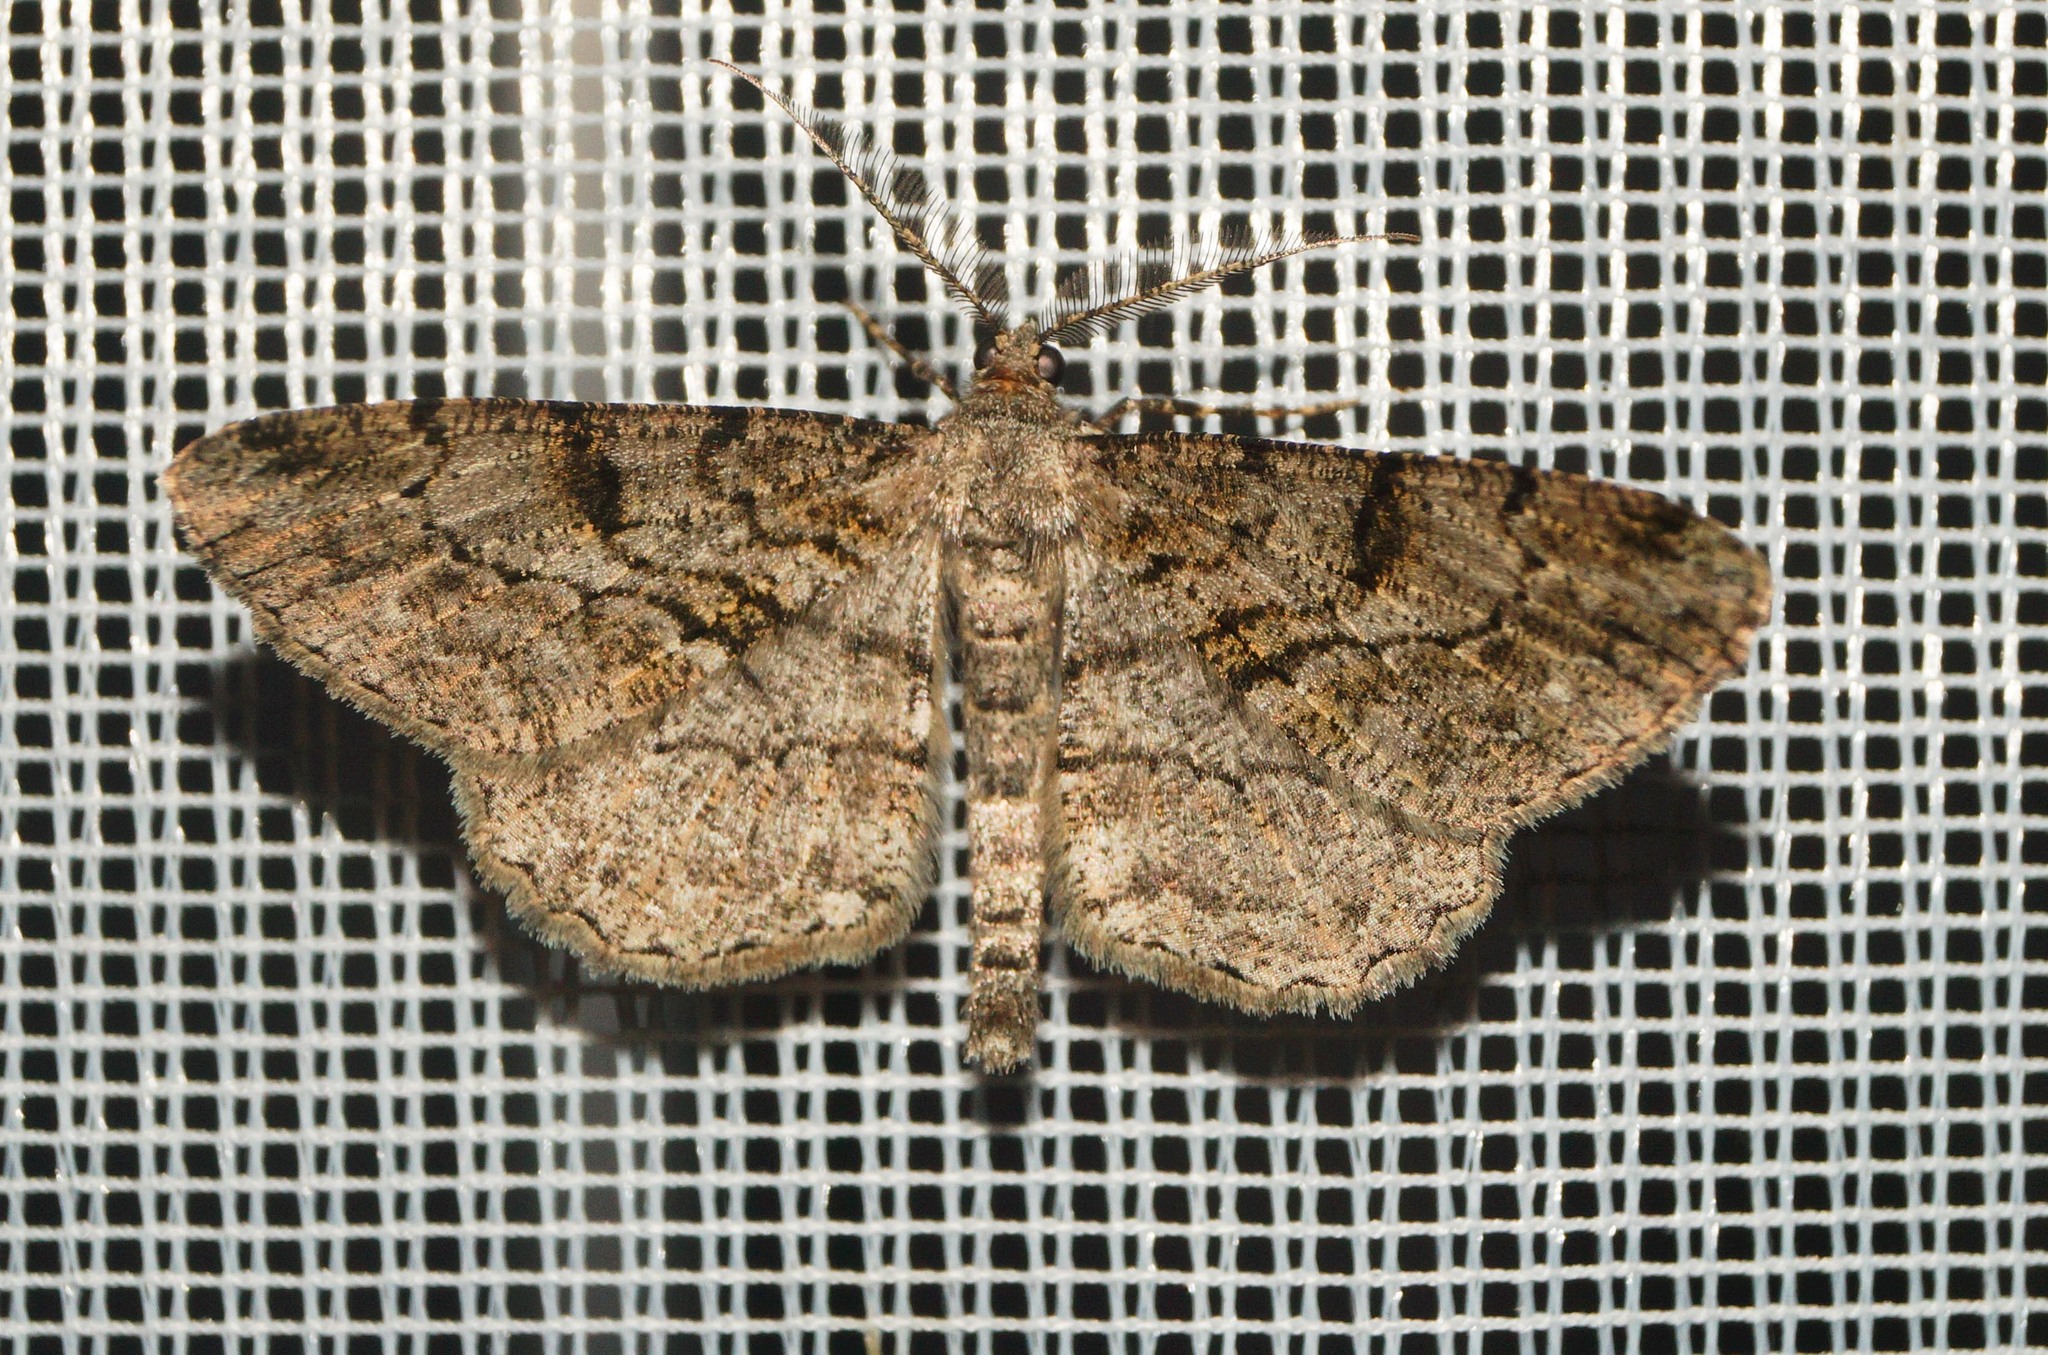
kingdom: Animalia
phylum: Arthropoda
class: Insecta
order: Lepidoptera
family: Geometridae
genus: Peribatodes
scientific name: Peribatodes rhomboidaria
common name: Willow beauty
